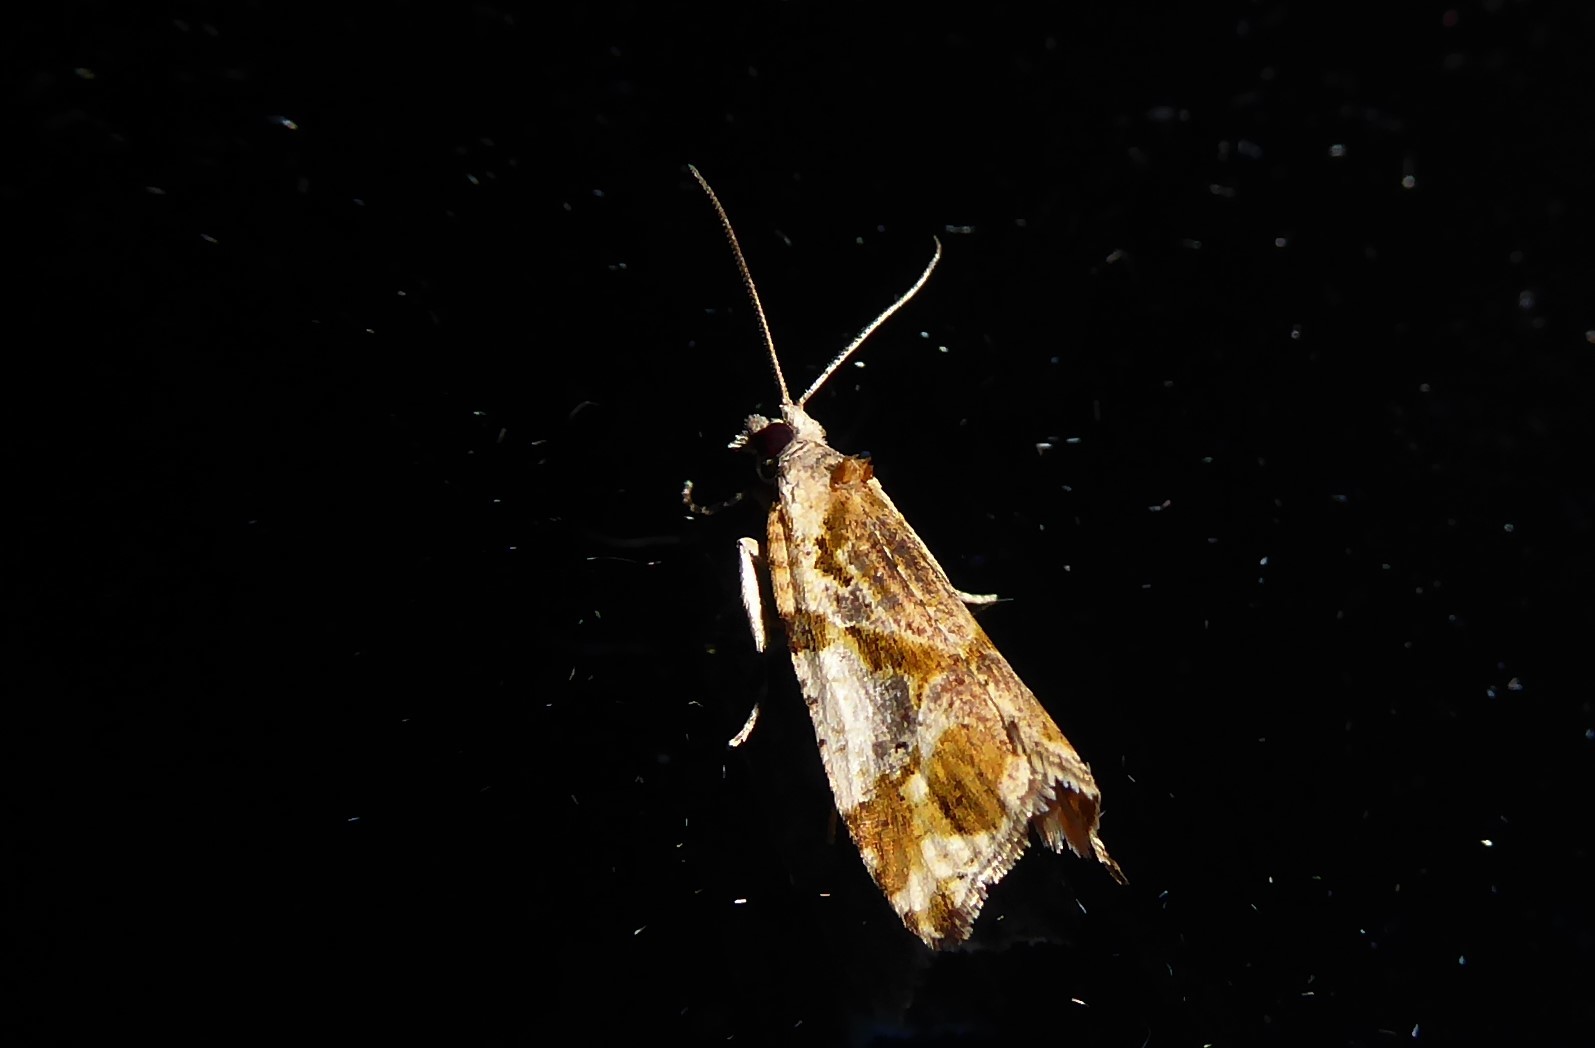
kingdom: Animalia
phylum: Arthropoda
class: Insecta
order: Lepidoptera
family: Tortricidae
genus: Pyrgotis
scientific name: Pyrgotis plagiatana
